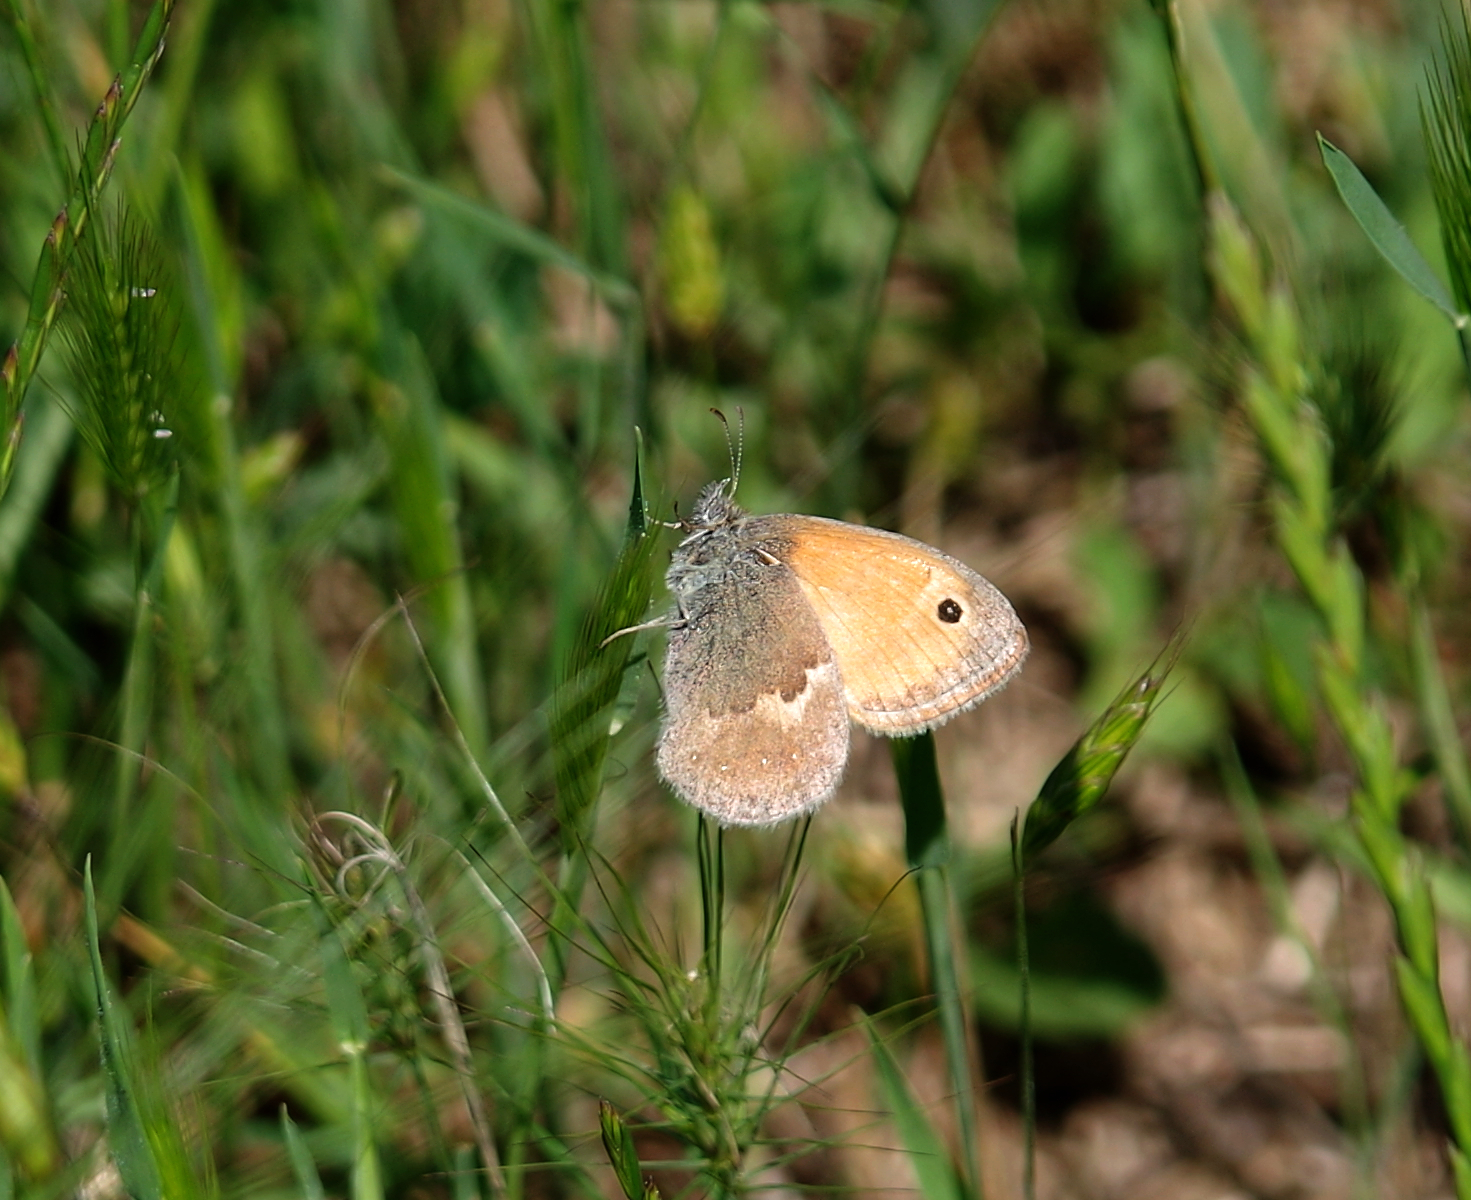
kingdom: Animalia
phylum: Arthropoda
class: Insecta
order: Lepidoptera
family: Nymphalidae
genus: Coenonympha
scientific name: Coenonympha pamphilus
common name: Small heath
